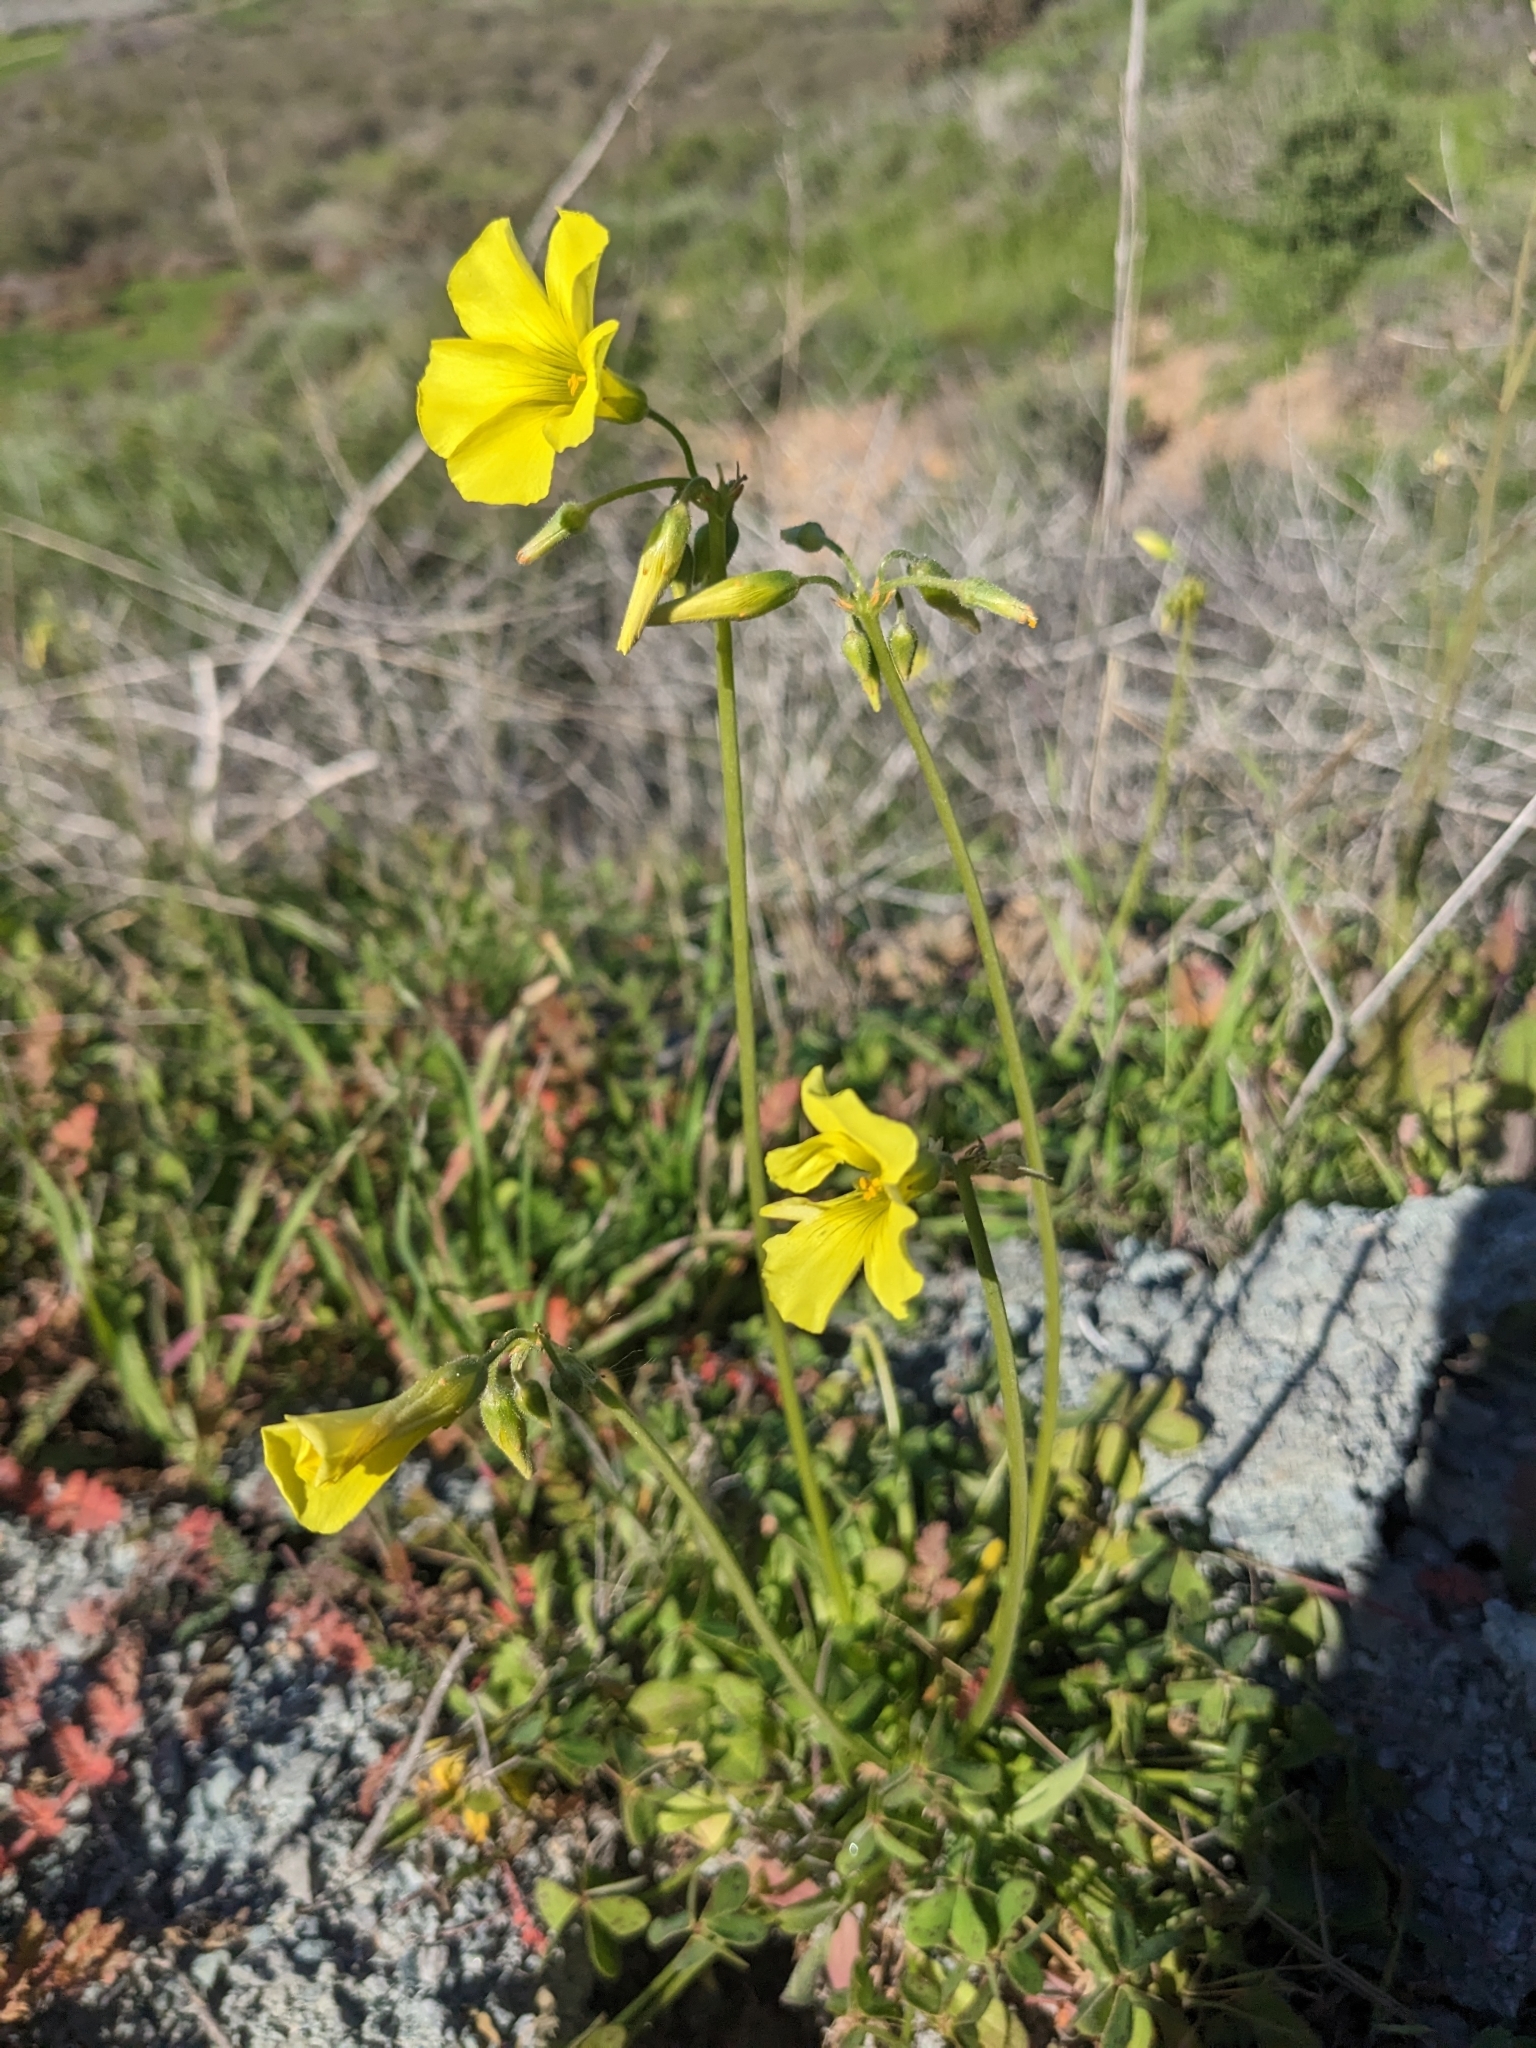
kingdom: Plantae
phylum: Tracheophyta
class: Magnoliopsida
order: Oxalidales
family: Oxalidaceae
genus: Oxalis
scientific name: Oxalis pes-caprae
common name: Bermuda-buttercup
